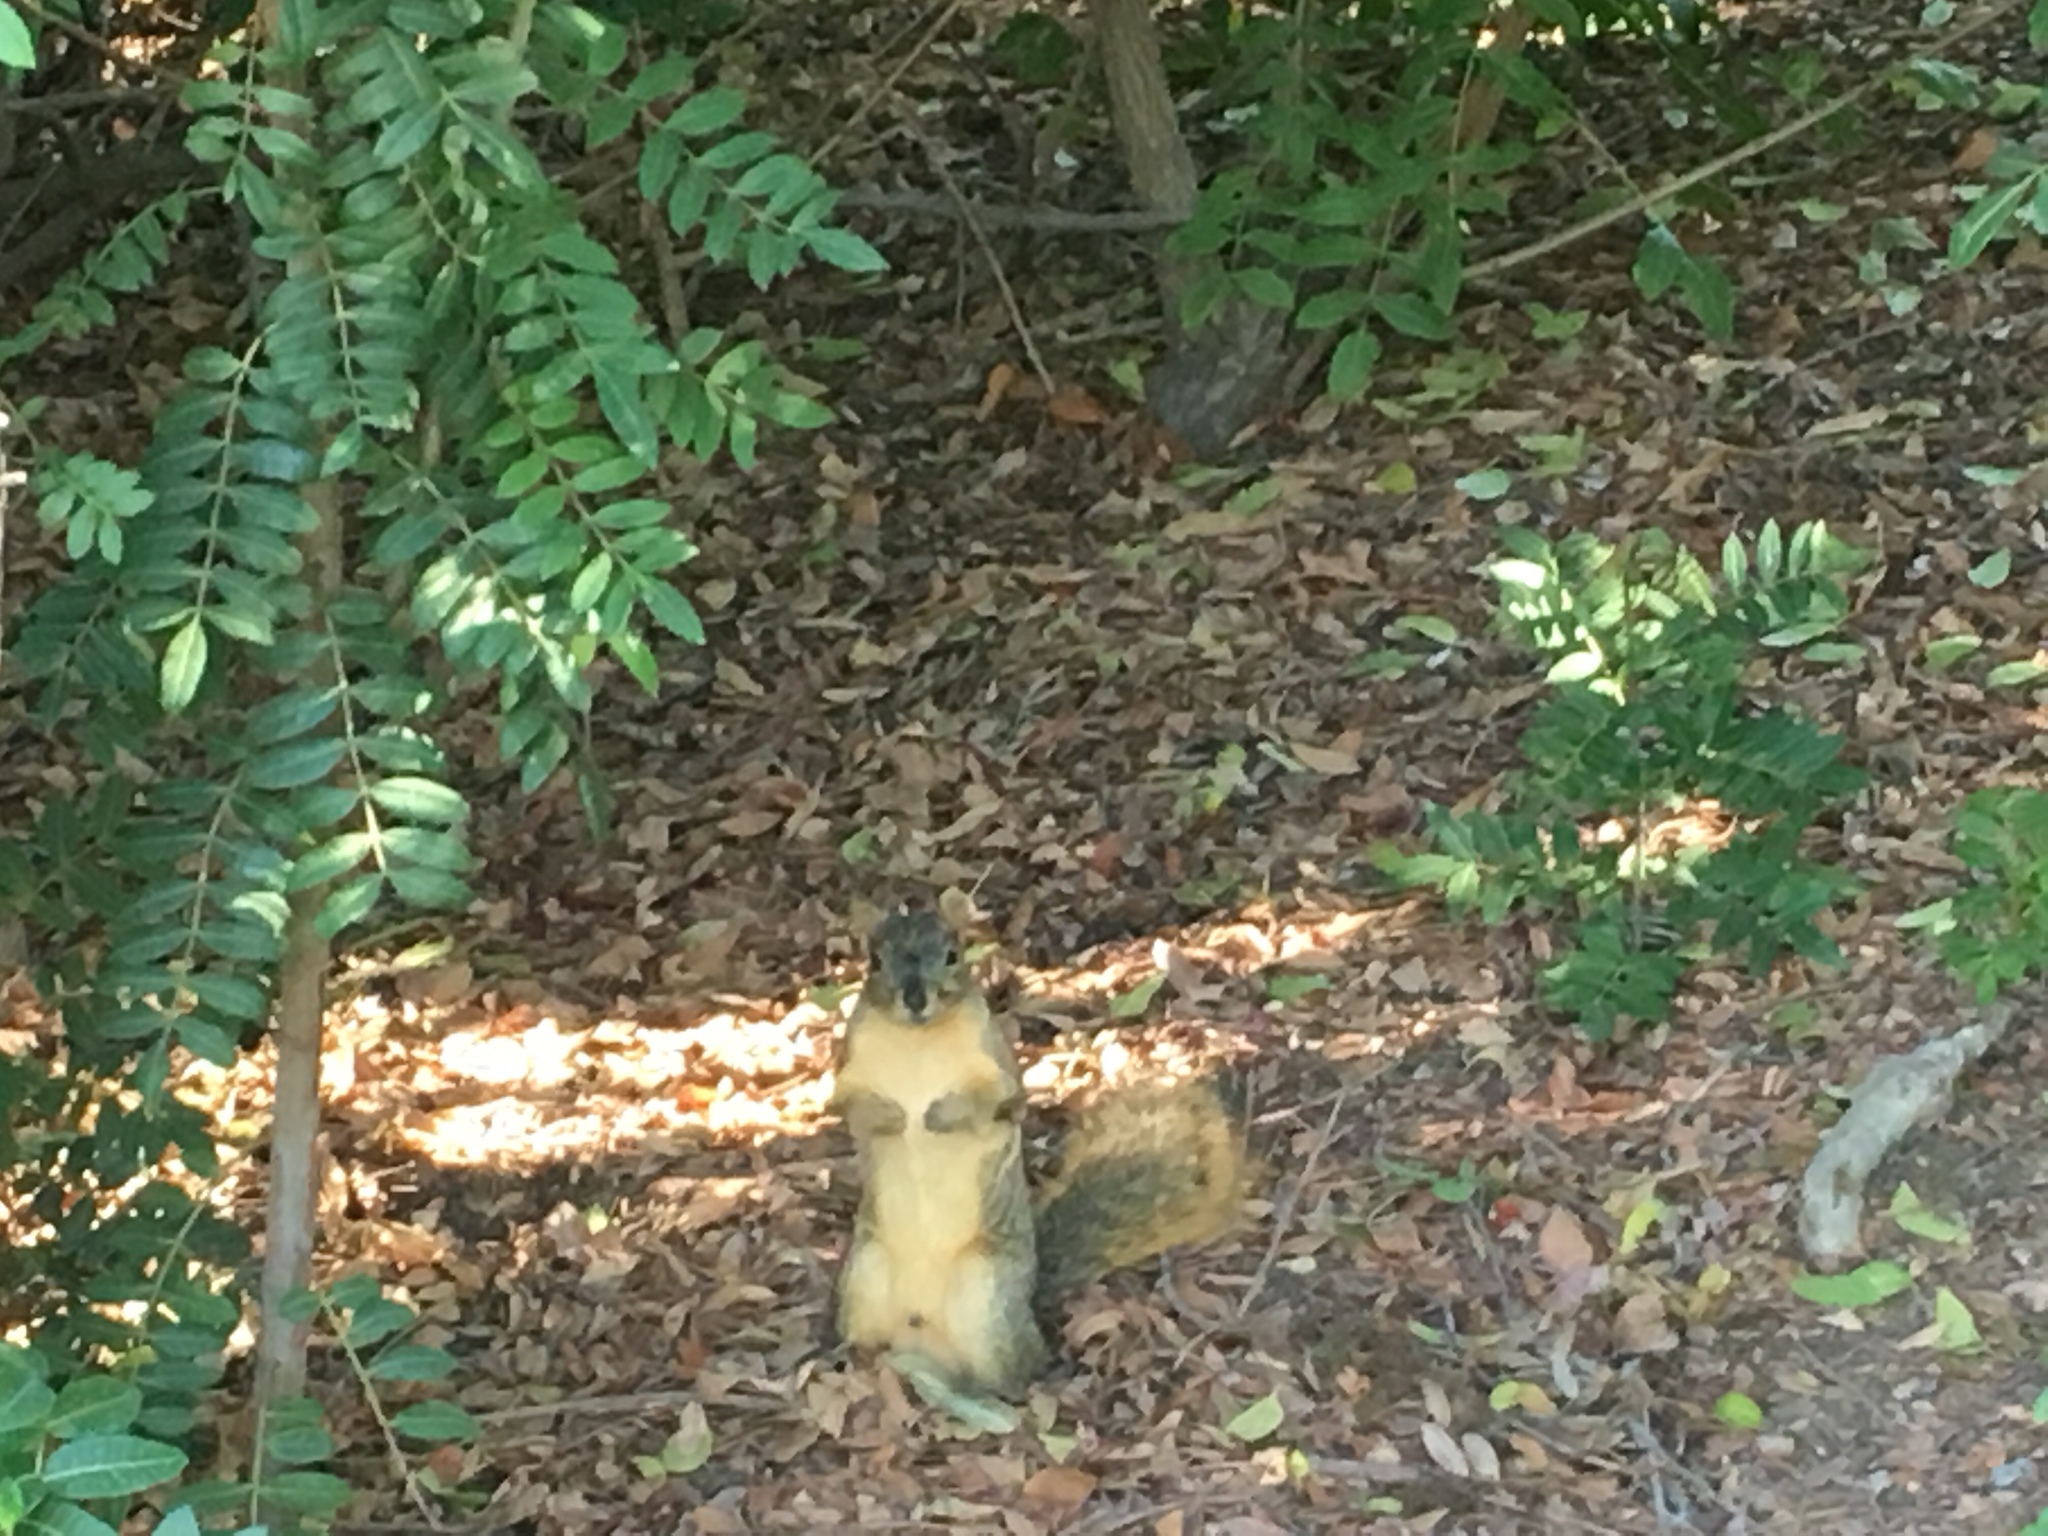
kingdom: Animalia
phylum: Chordata
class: Mammalia
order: Rodentia
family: Sciuridae
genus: Sciurus
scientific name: Sciurus niger
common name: Fox squirrel
